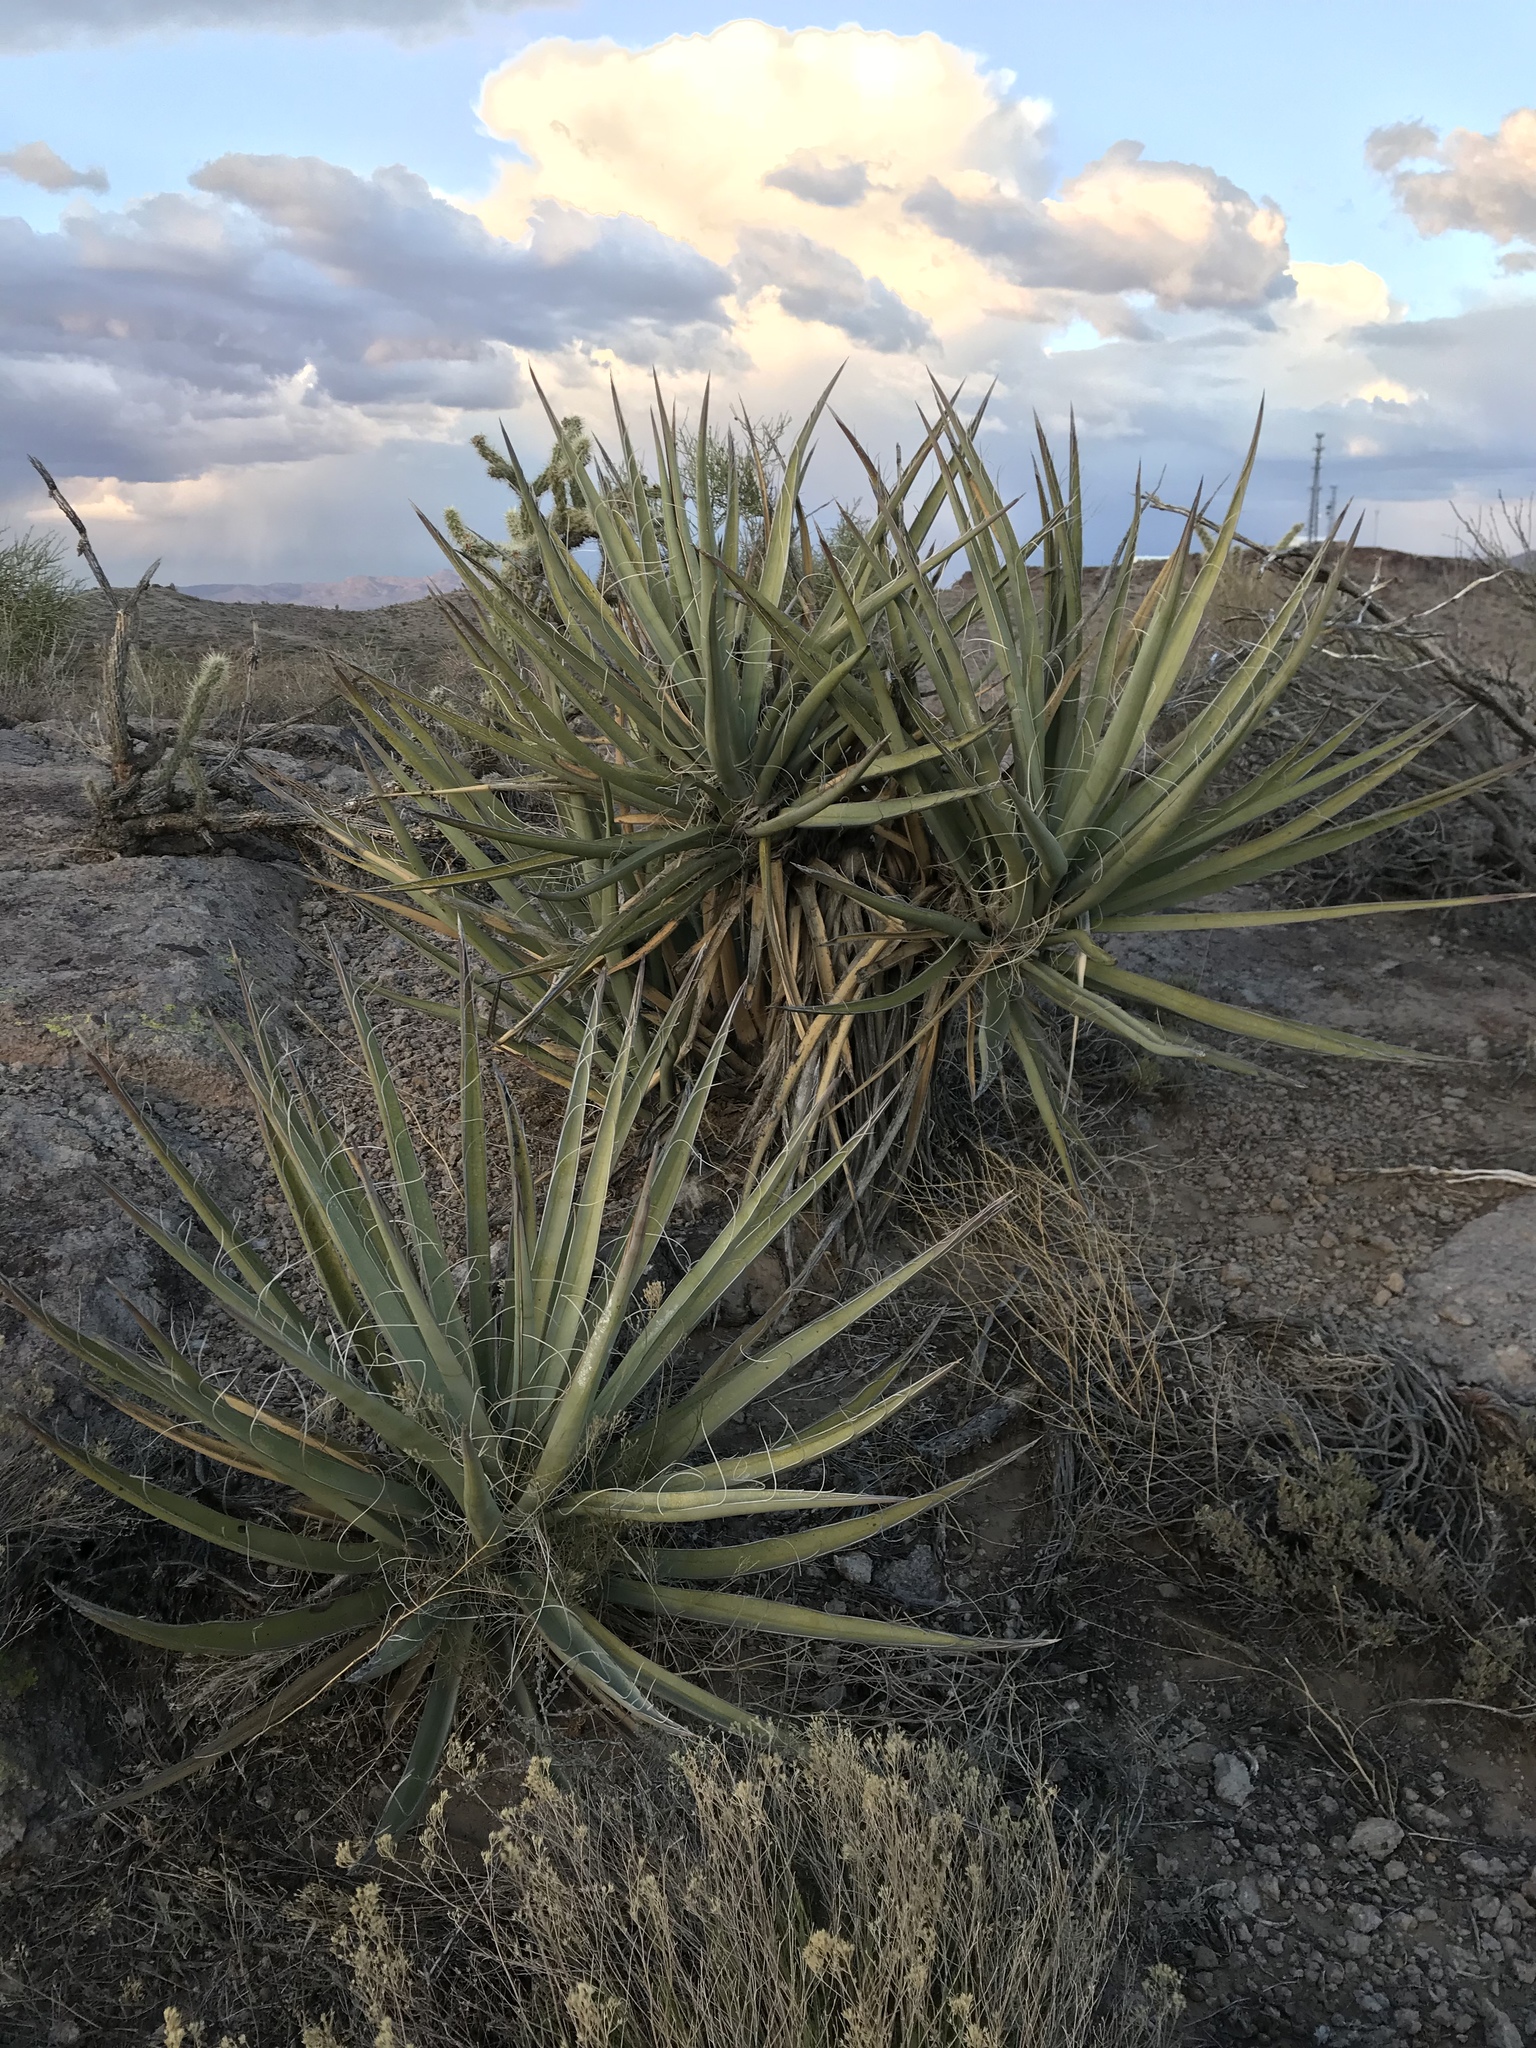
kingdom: Plantae
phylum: Tracheophyta
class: Liliopsida
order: Asparagales
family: Asparagaceae
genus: Yucca
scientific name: Yucca schidigera
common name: Mojave yucca
